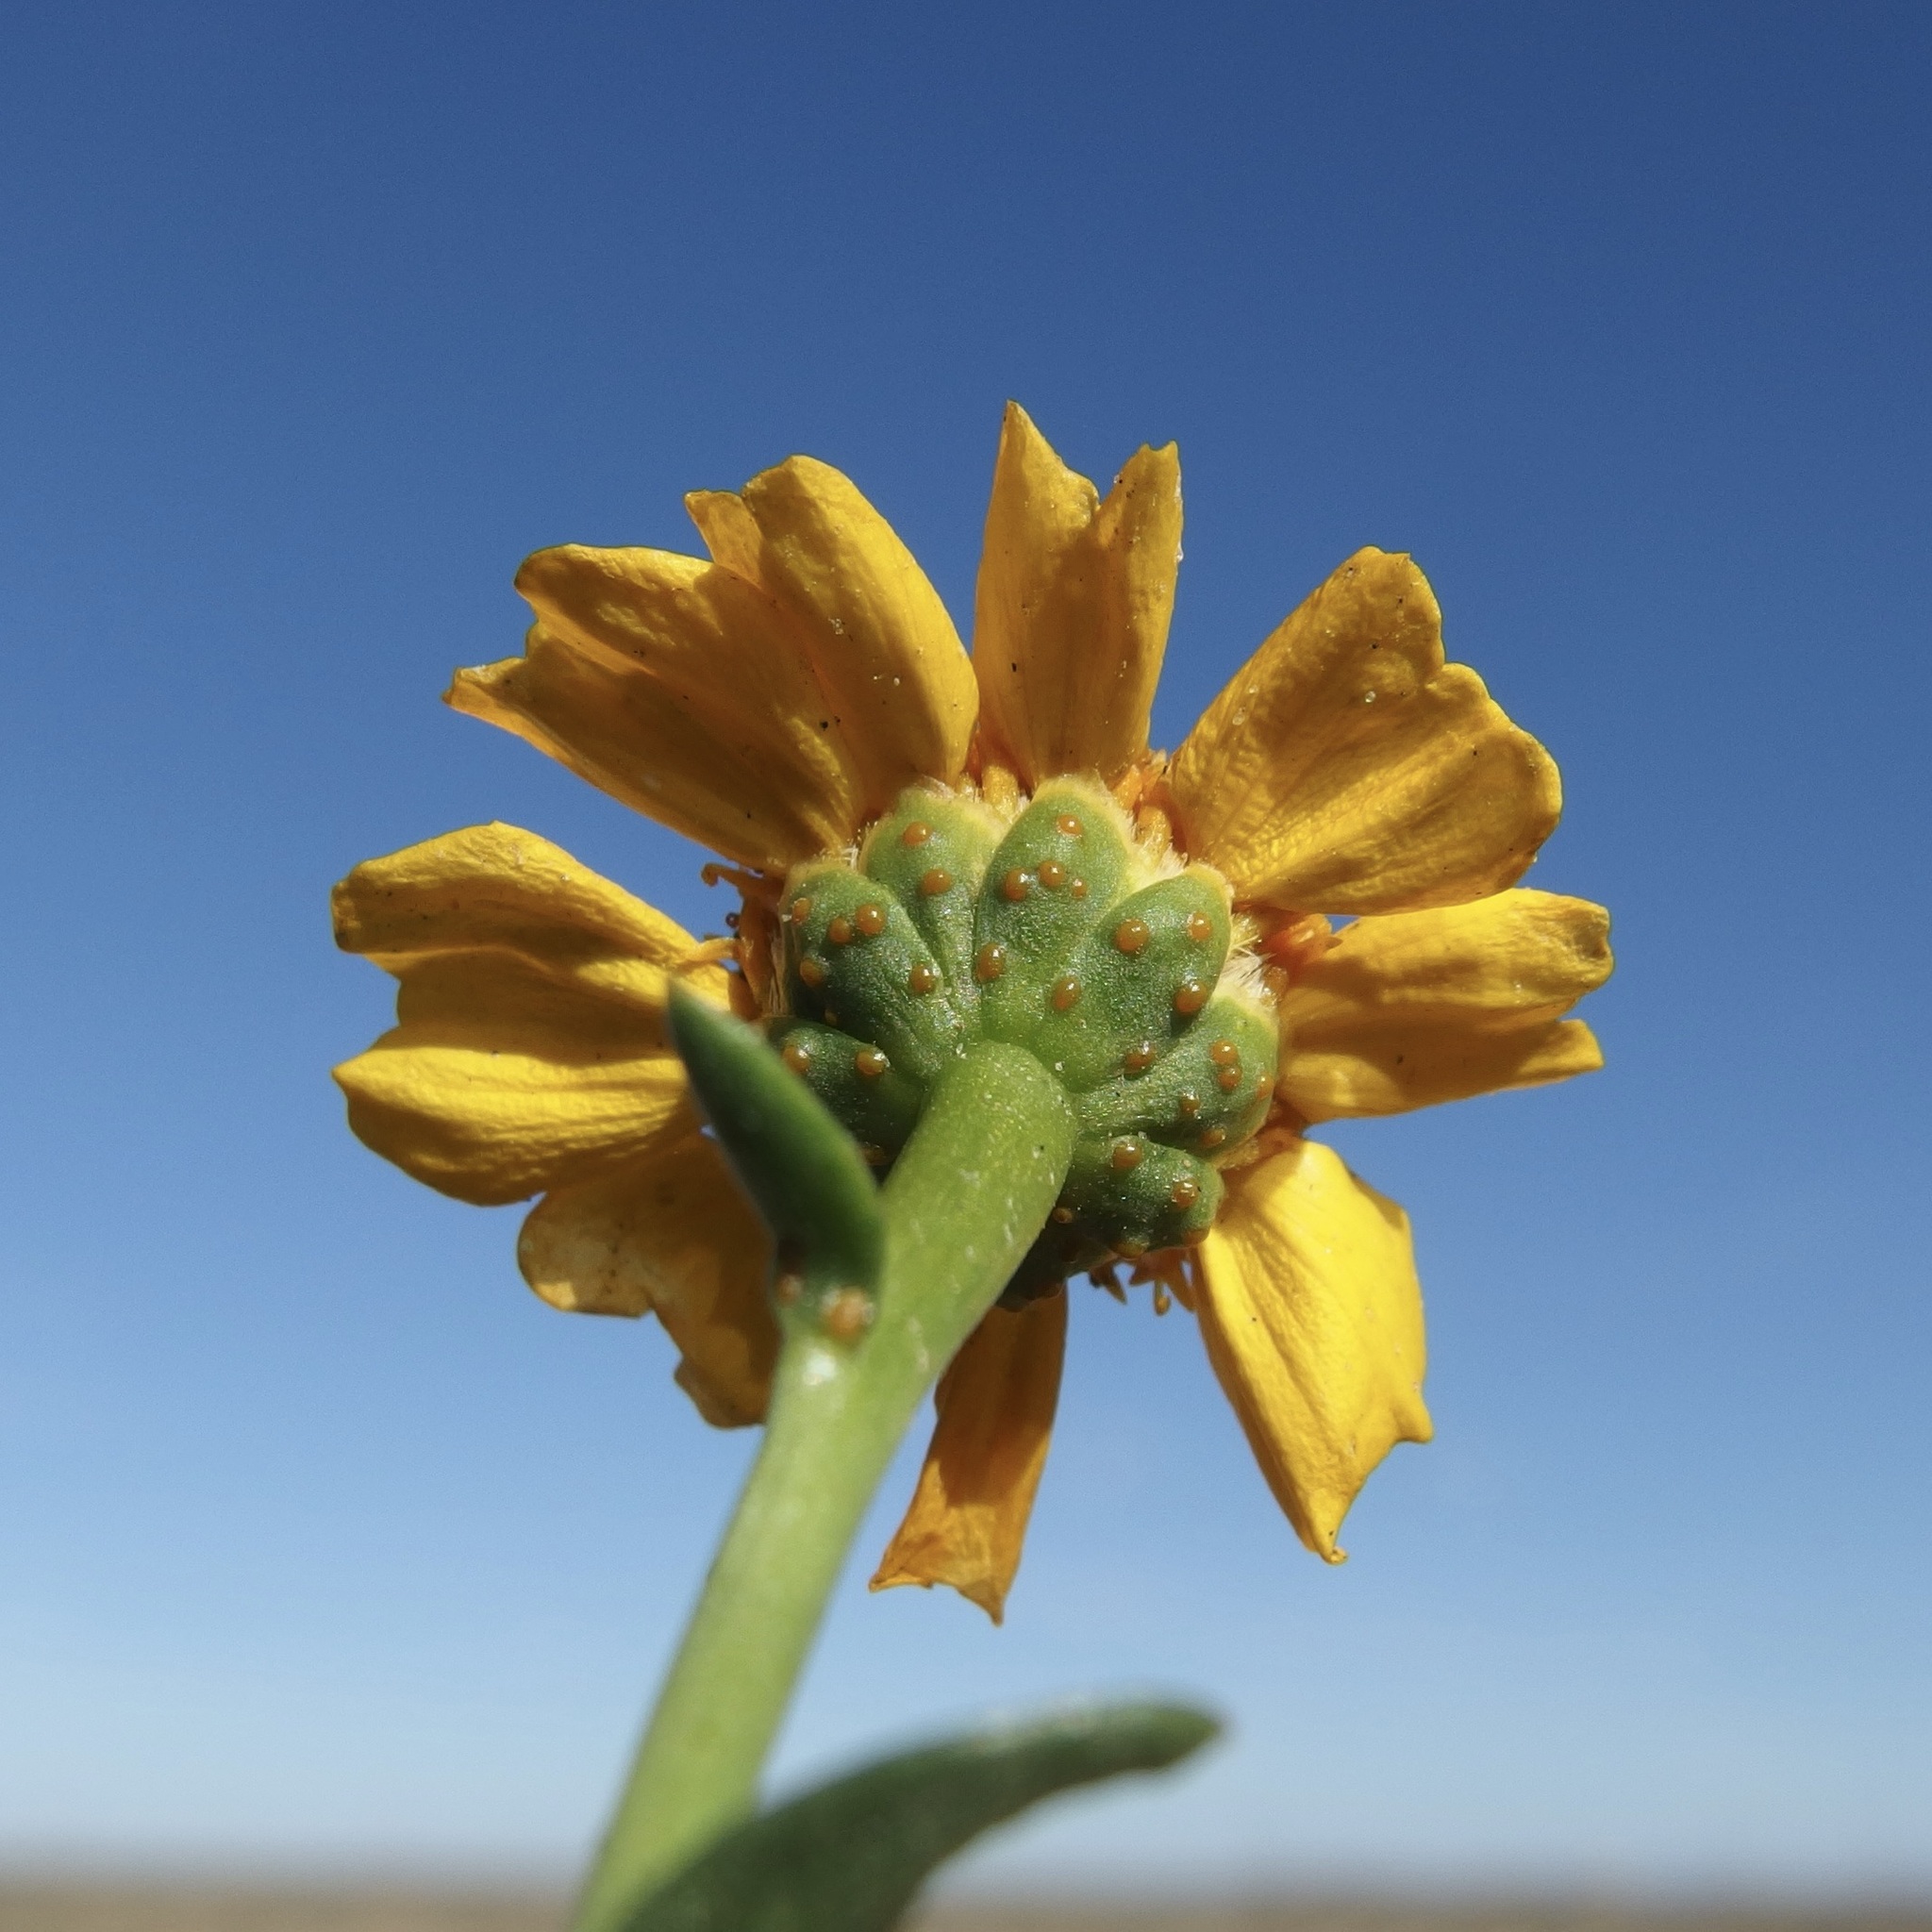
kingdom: Plantae
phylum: Tracheophyta
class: Magnoliopsida
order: Asterales
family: Asteraceae
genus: Boeberastrum
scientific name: Boeberastrum anthemidifolium
